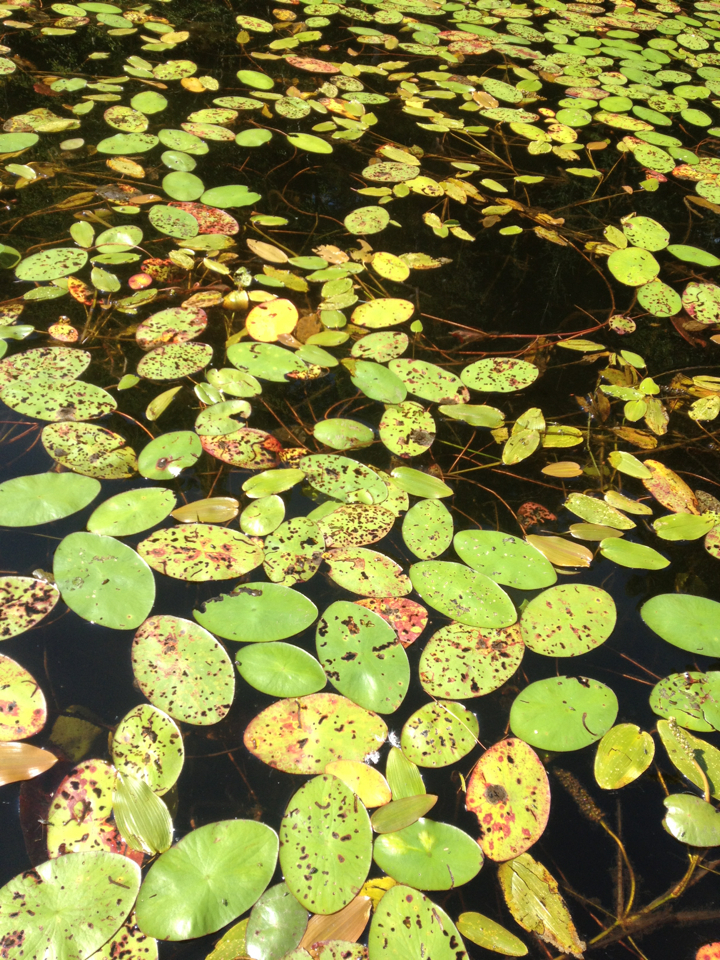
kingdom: Plantae
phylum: Tracheophyta
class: Magnoliopsida
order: Nymphaeales
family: Cabombaceae
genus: Brasenia
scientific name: Brasenia schreberi
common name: Water-shield
